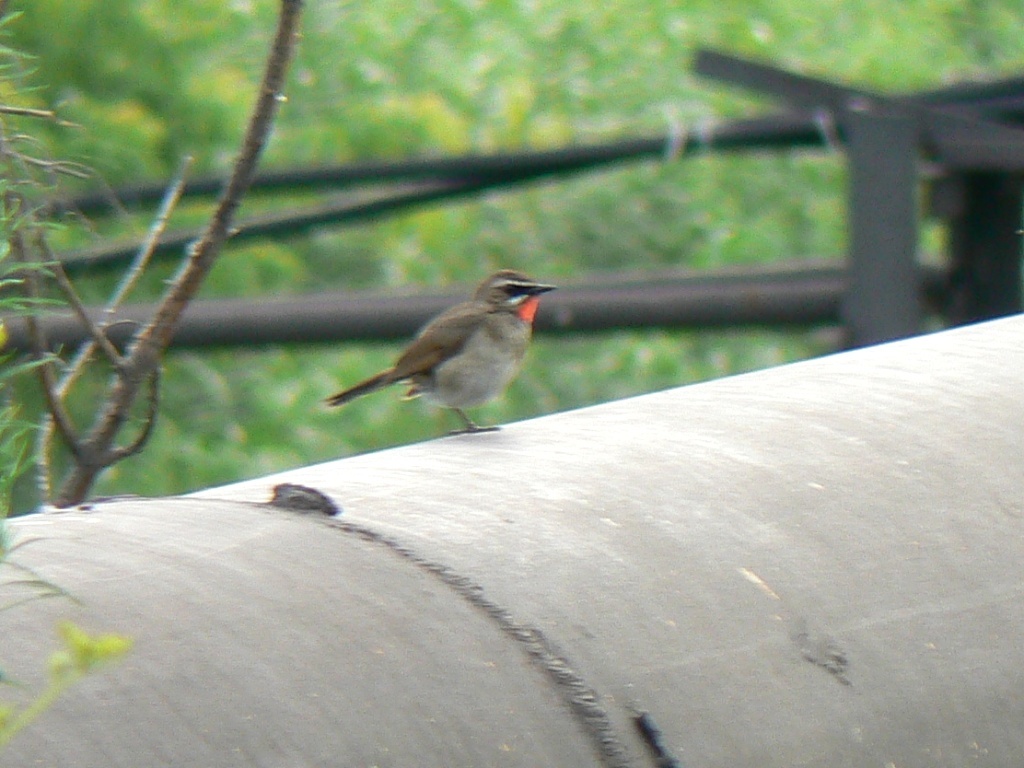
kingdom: Animalia
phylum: Chordata
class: Aves
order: Passeriformes
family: Muscicapidae
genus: Luscinia
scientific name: Luscinia calliope
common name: Siberian rubythroat
